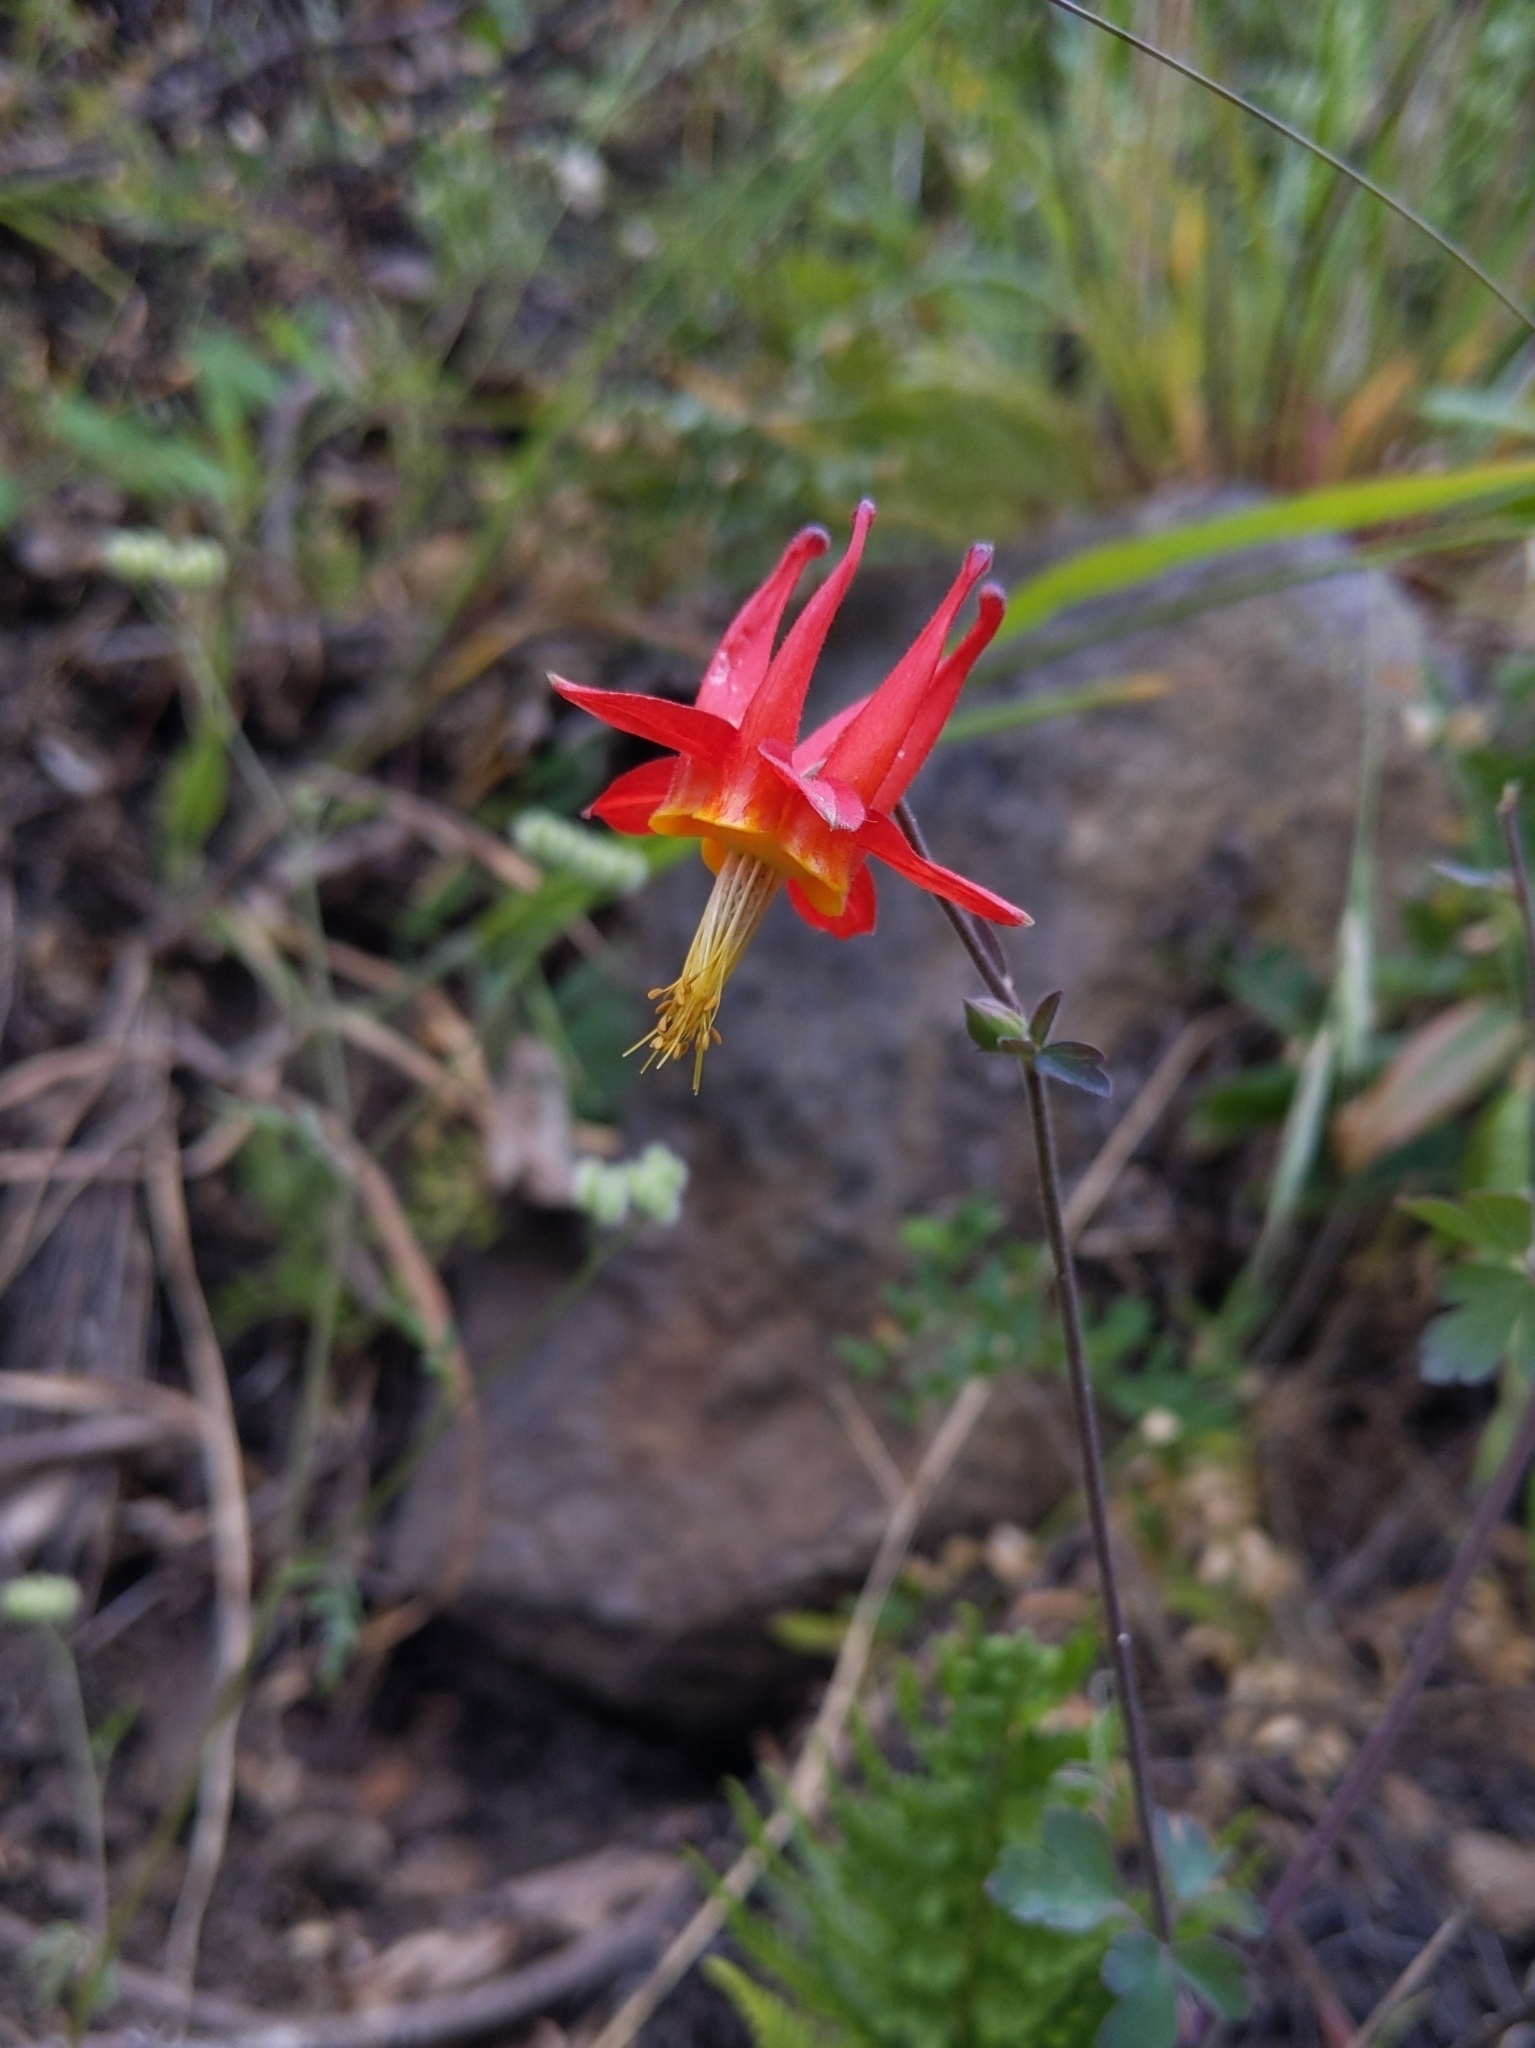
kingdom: Plantae
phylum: Tracheophyta
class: Magnoliopsida
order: Ranunculales
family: Ranunculaceae
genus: Aquilegia
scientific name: Aquilegia formosa
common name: Sitka columbine
